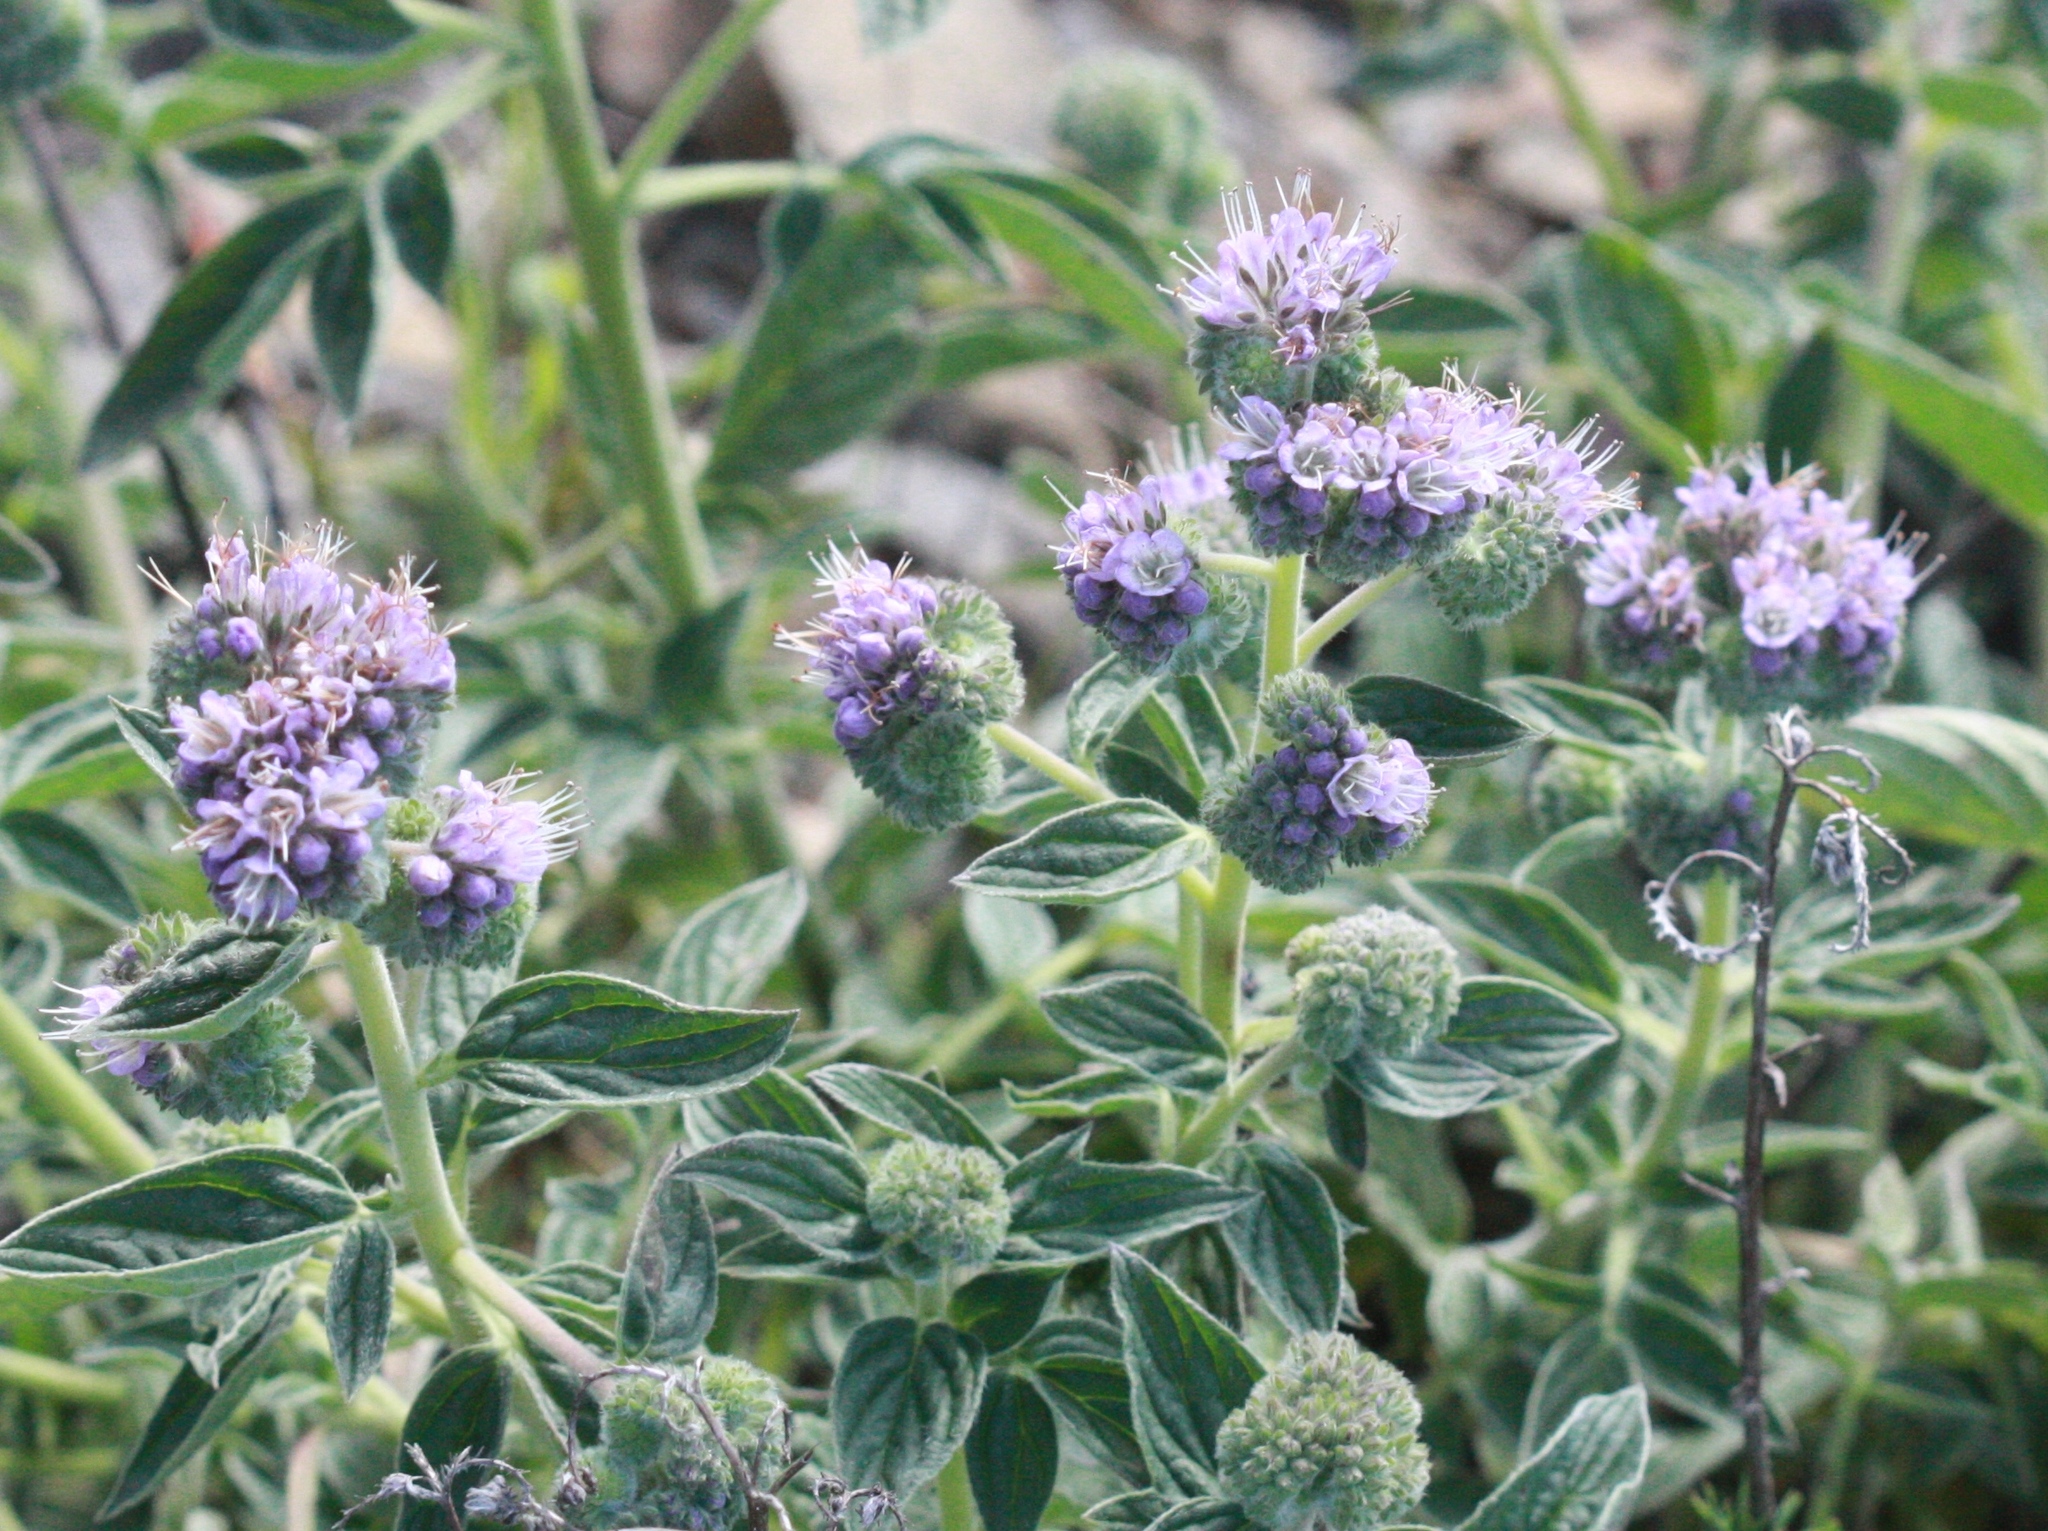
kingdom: Plantae
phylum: Tracheophyta
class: Magnoliopsida
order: Boraginales
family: Hydrophyllaceae
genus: Phacelia
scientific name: Phacelia californica
